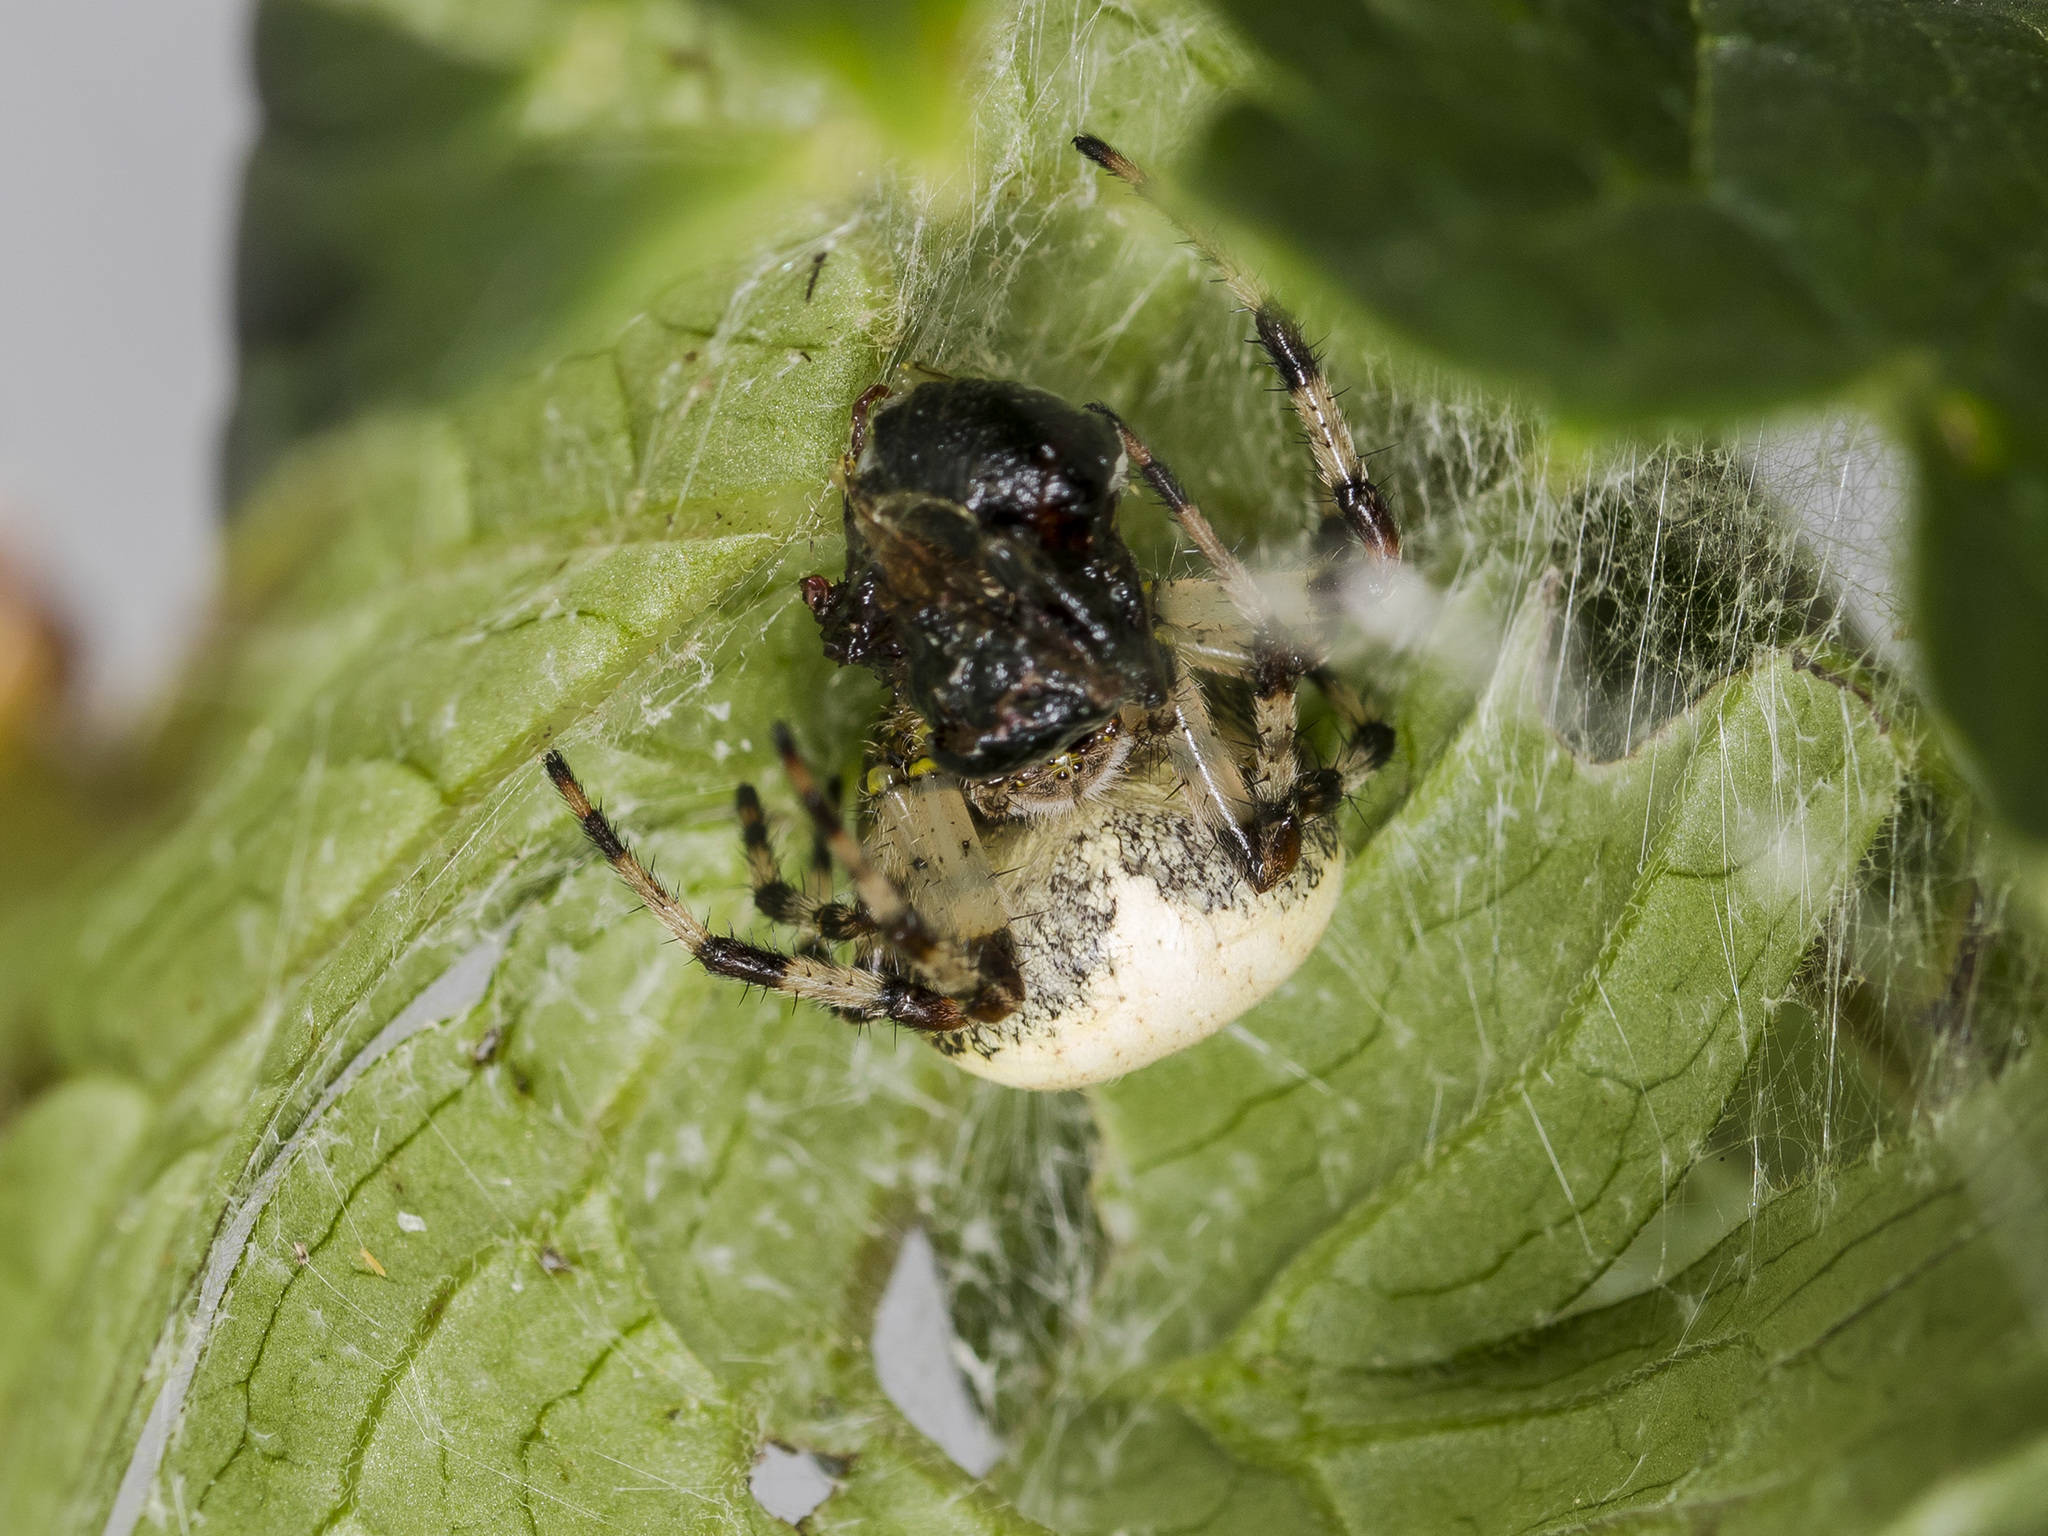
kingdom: Animalia
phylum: Arthropoda
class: Arachnida
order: Araneae
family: Araneidae
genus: Araneus
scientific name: Araneus marmoreus
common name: Marbled orbweaver
